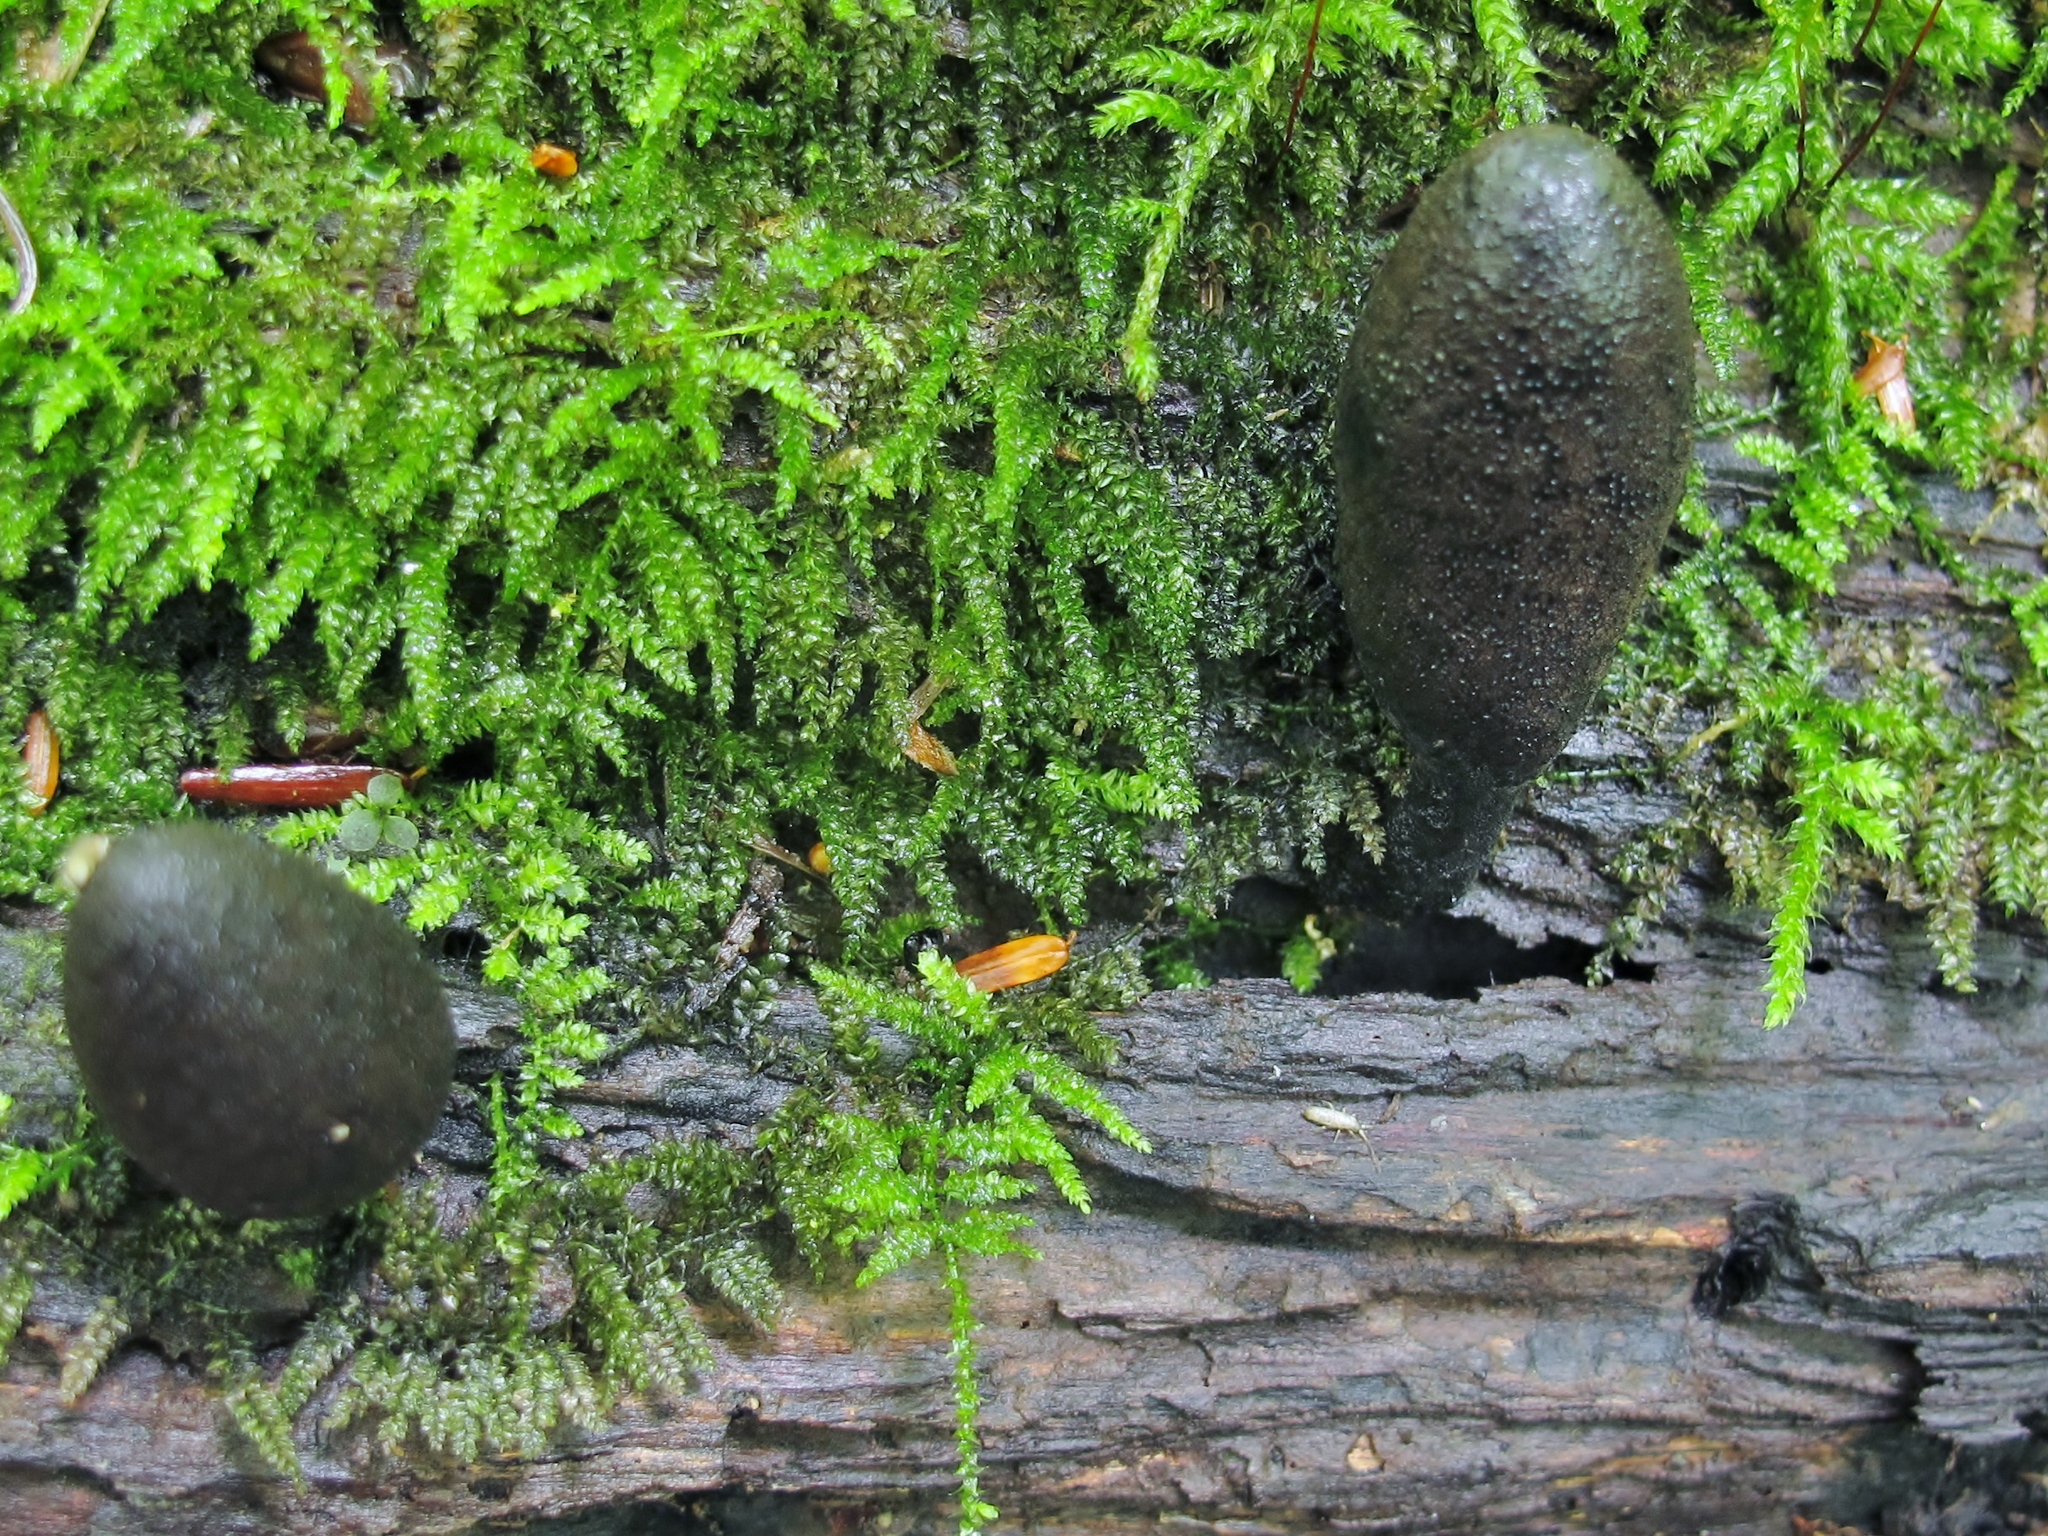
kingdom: Fungi
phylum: Ascomycota
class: Sordariomycetes
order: Xylariales
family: Xylariaceae
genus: Xylaria
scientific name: Xylaria polymorpha
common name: Dead man's fingers
